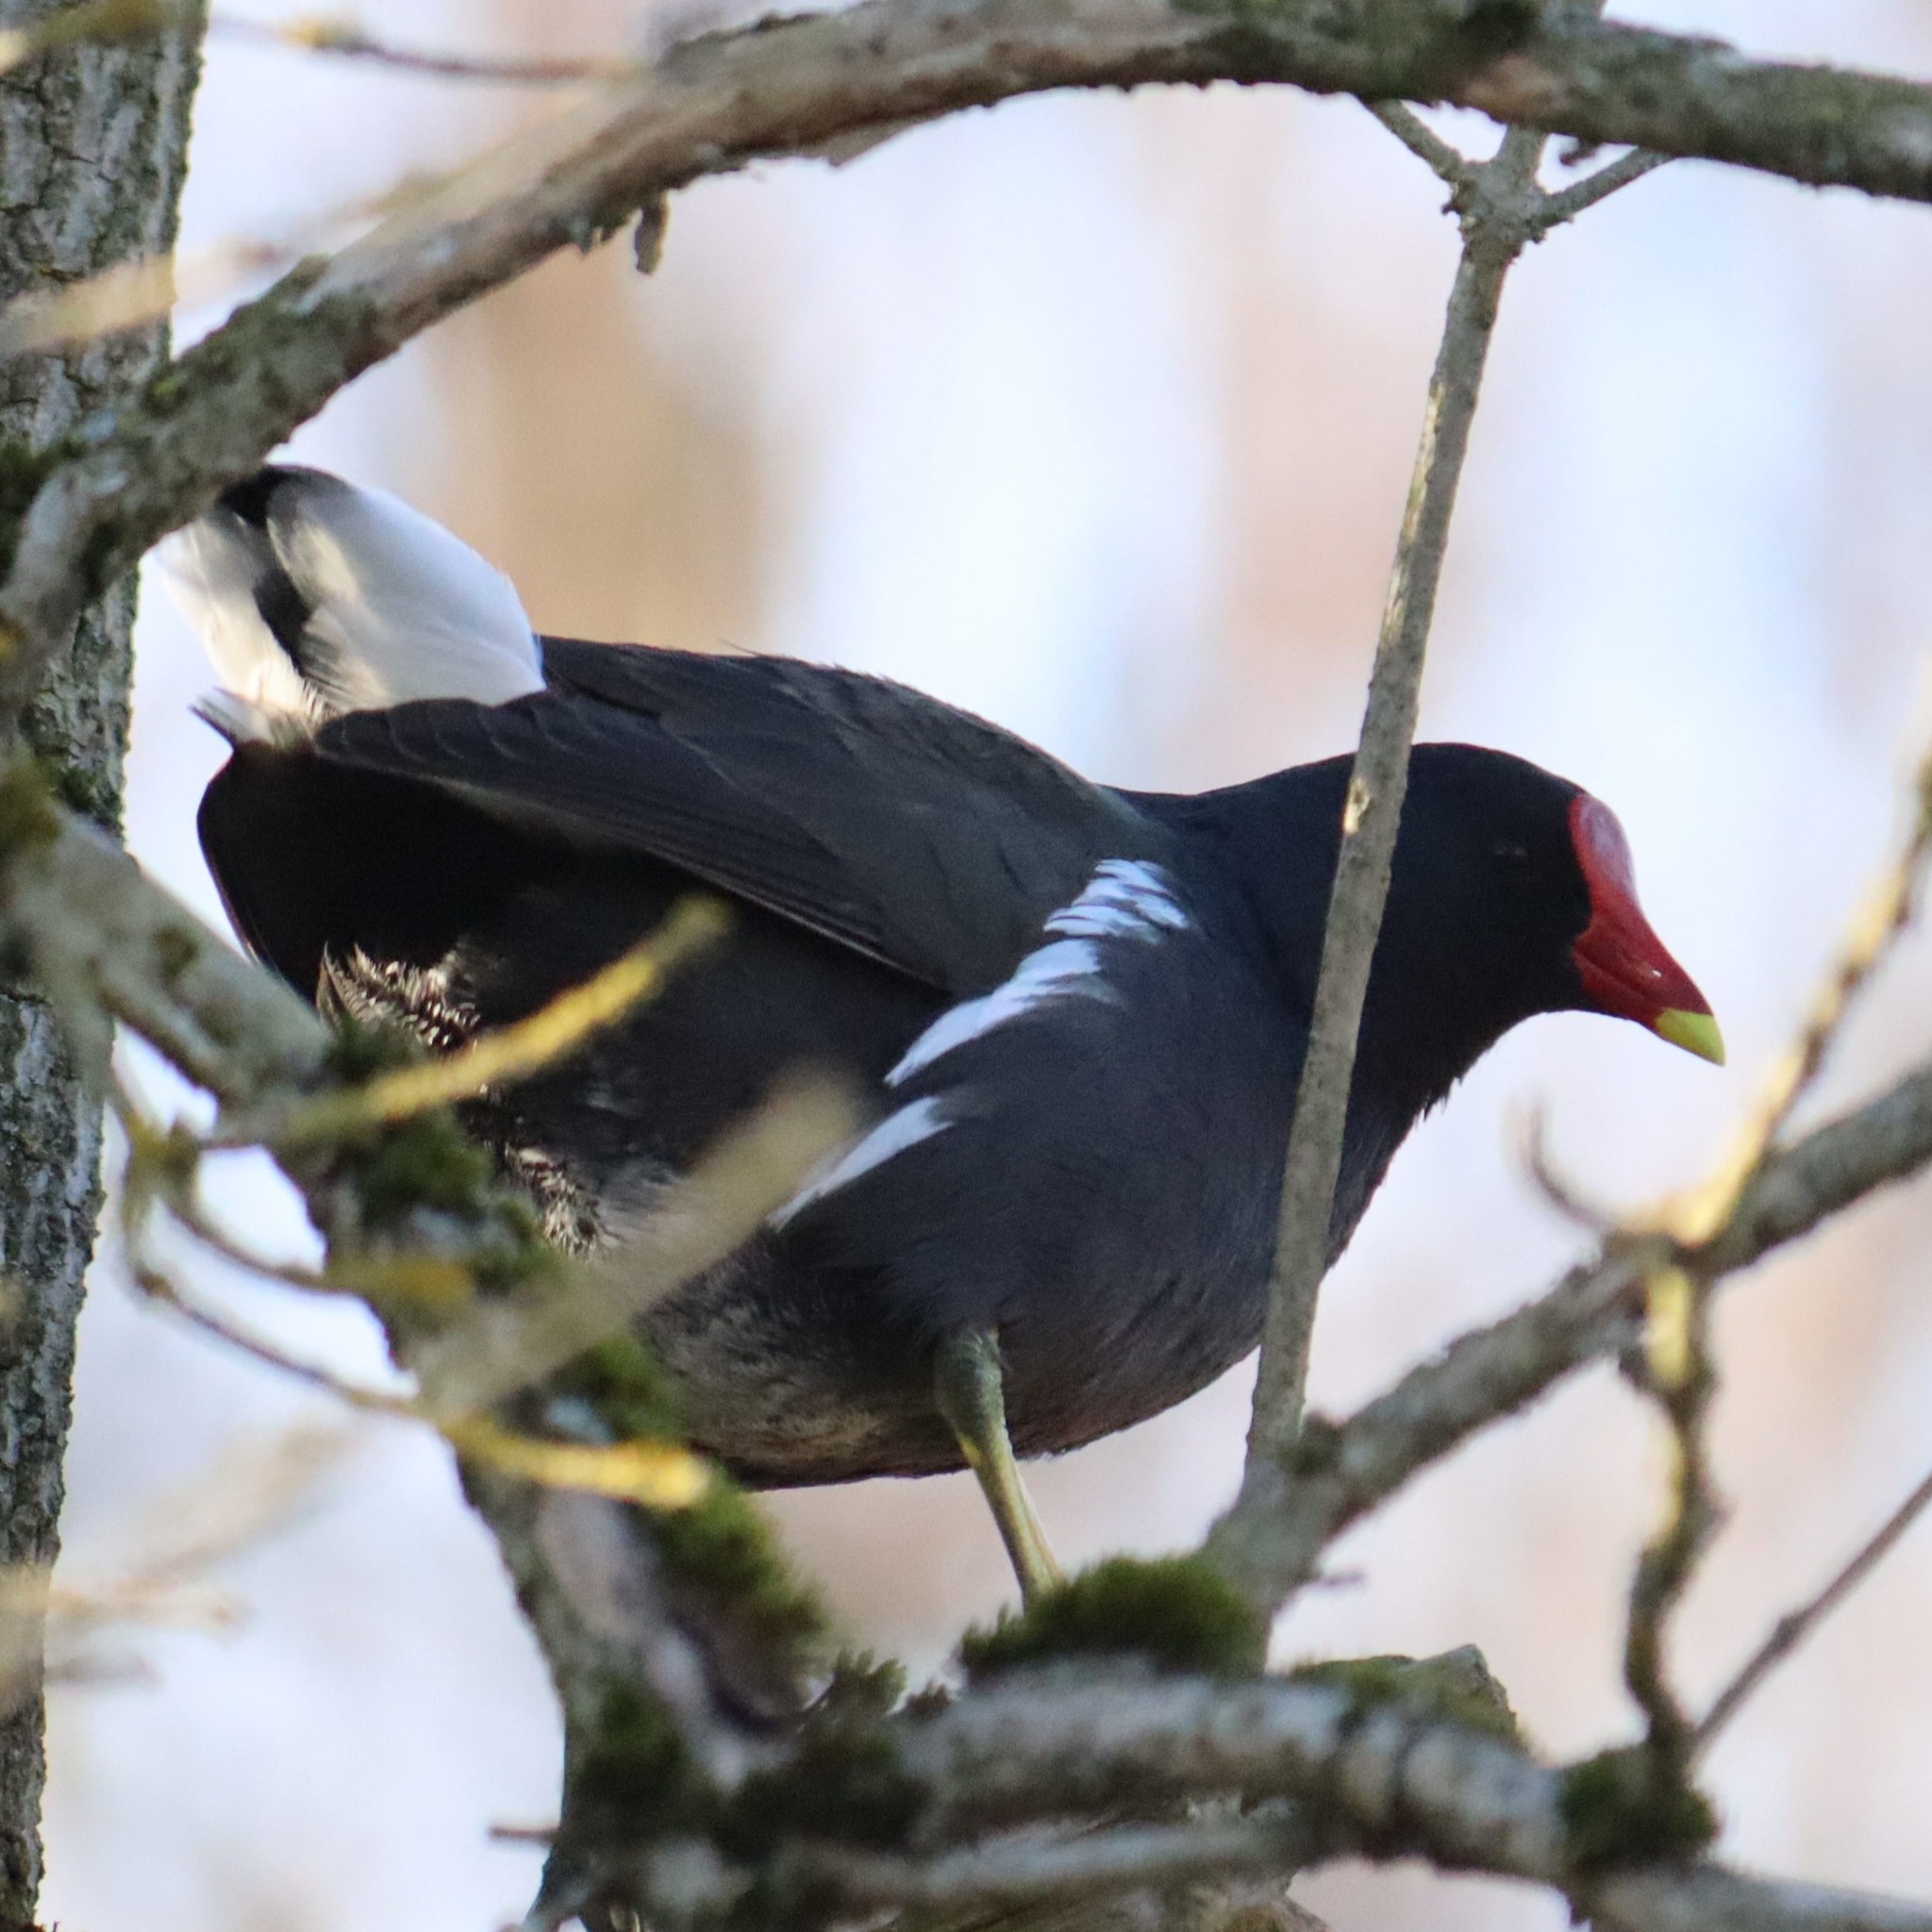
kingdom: Animalia
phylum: Chordata
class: Aves
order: Gruiformes
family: Rallidae
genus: Gallinula
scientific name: Gallinula chloropus
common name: Common moorhen
